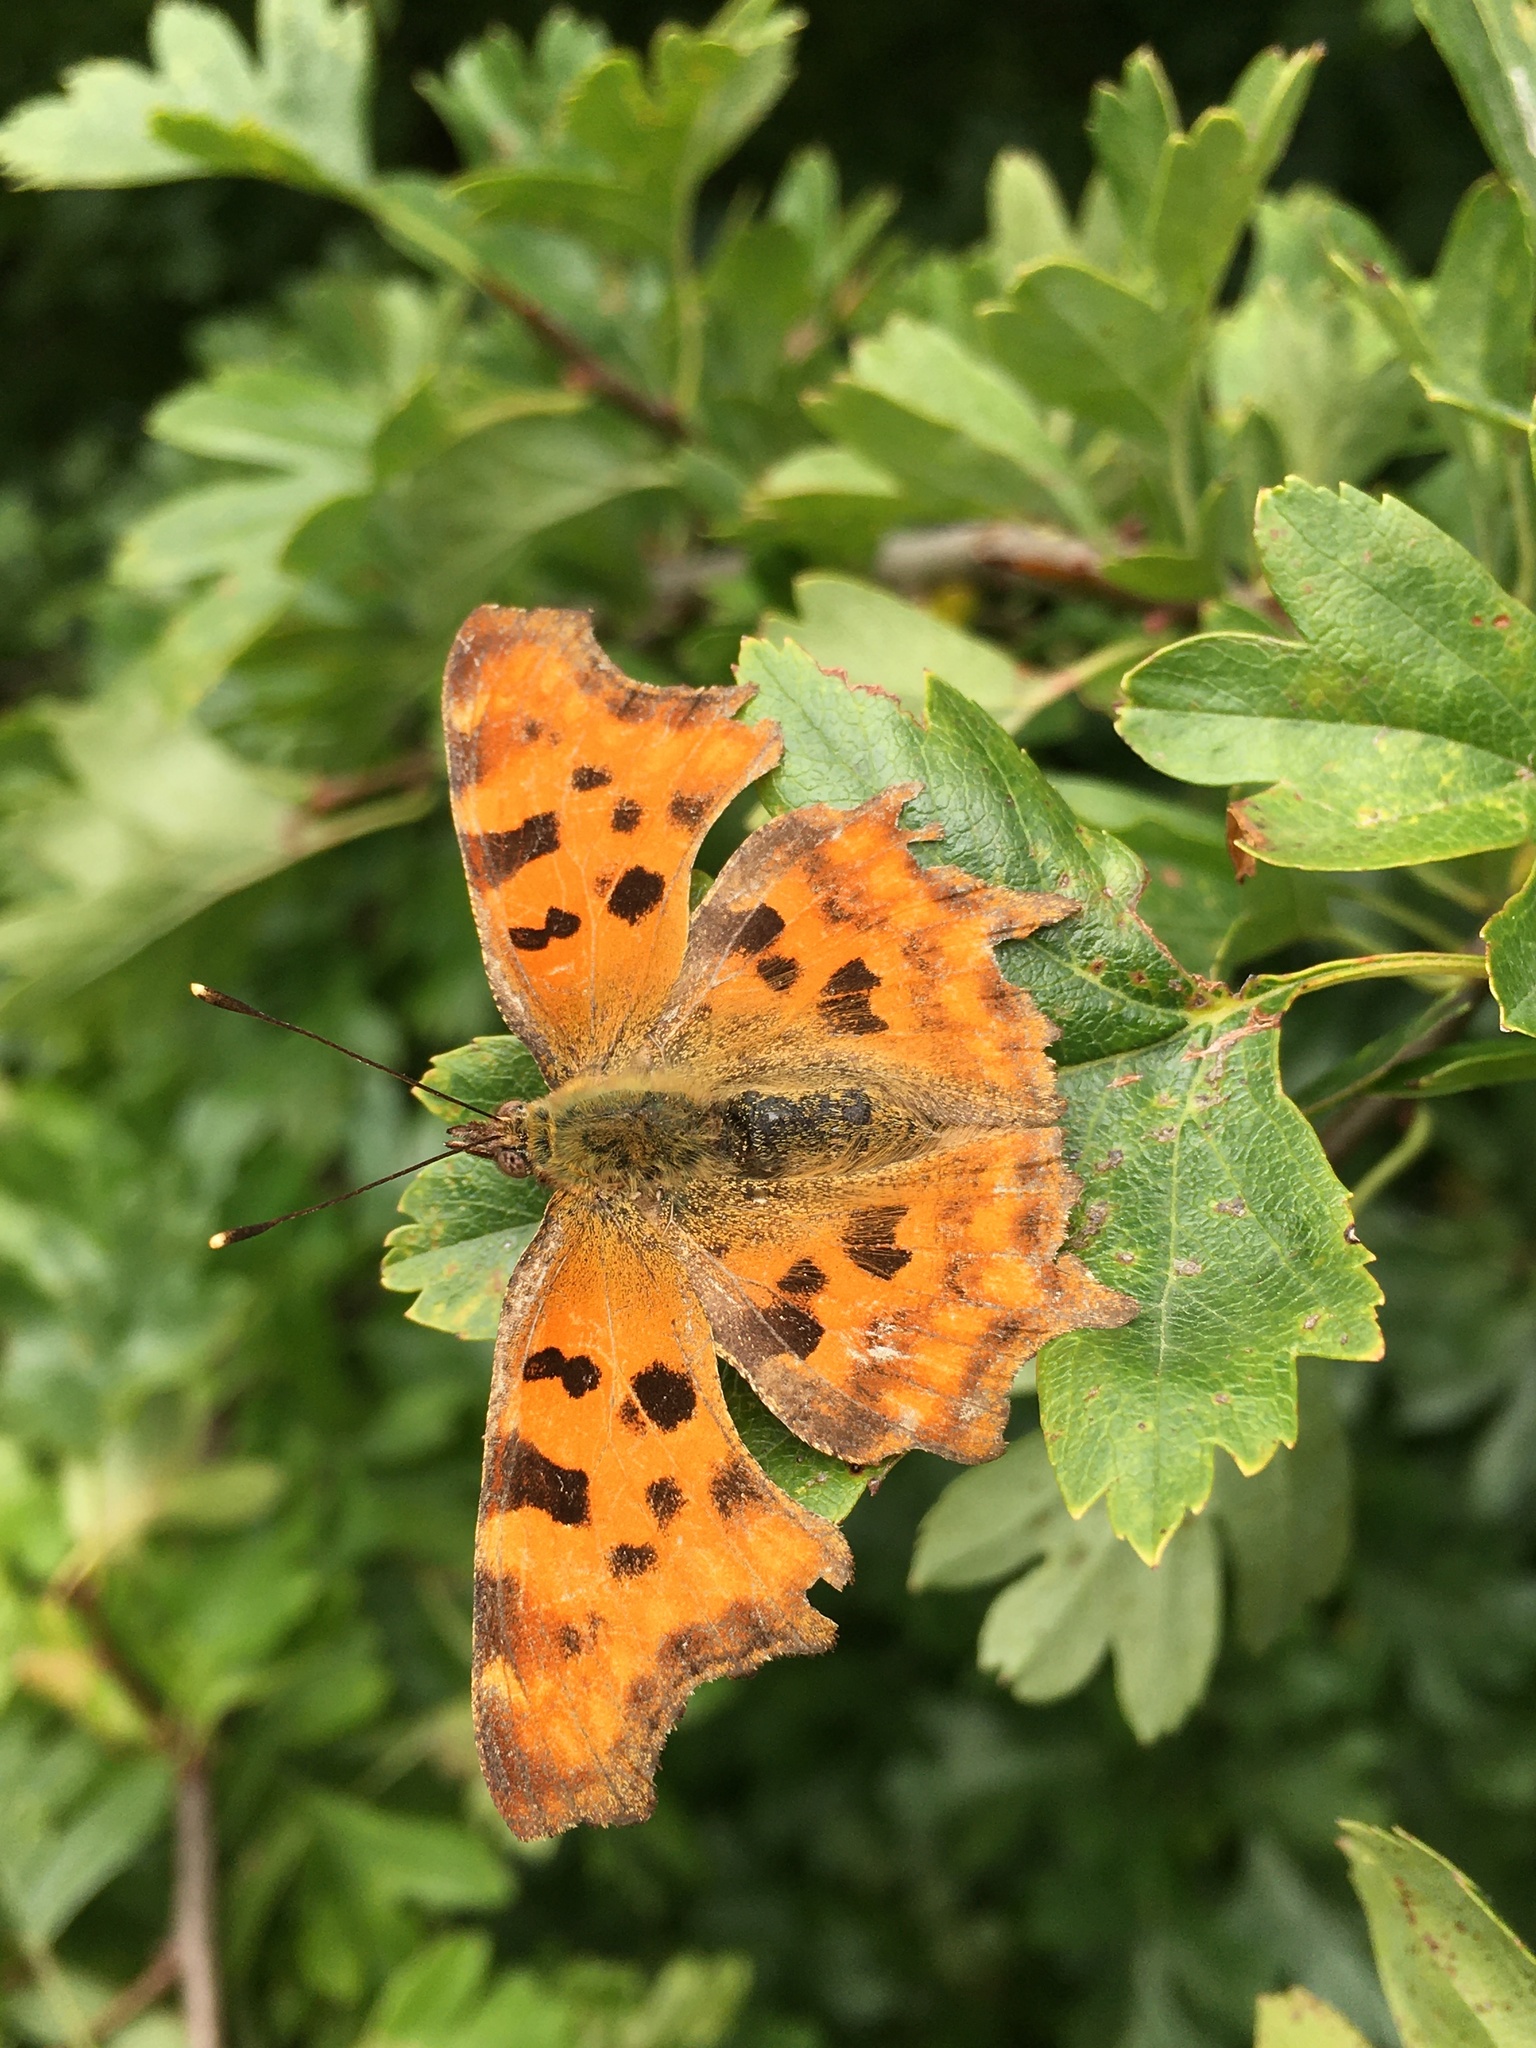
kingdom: Animalia
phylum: Arthropoda
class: Insecta
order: Lepidoptera
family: Nymphalidae
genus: Polygonia
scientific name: Polygonia c-album
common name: Comma
